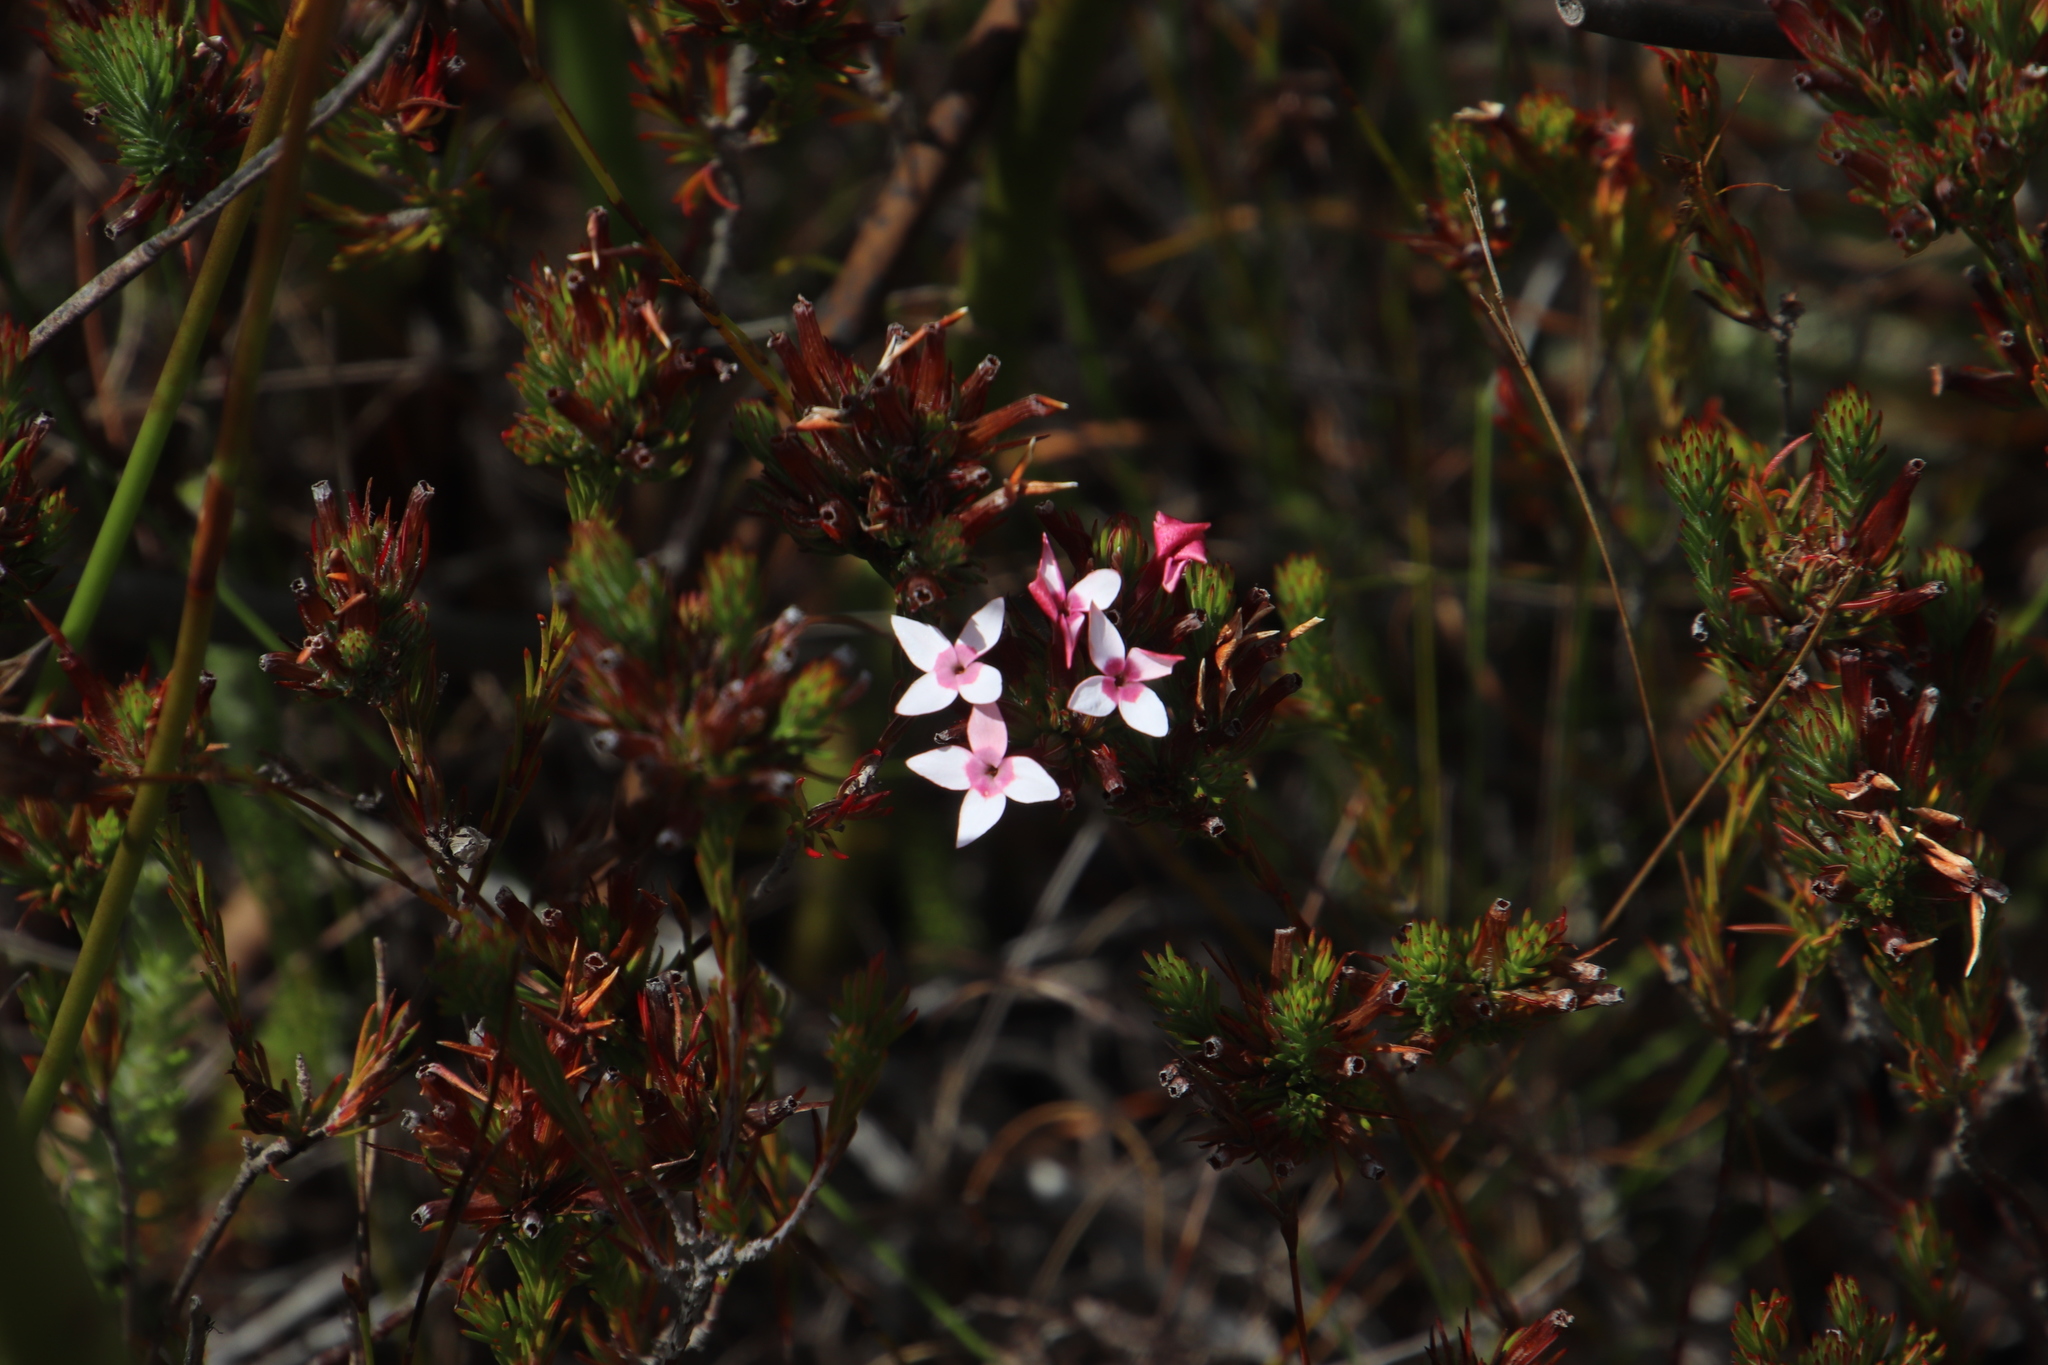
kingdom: Plantae
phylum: Tracheophyta
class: Magnoliopsida
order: Ericales
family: Ericaceae
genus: Erica
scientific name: Erica fastigiata
